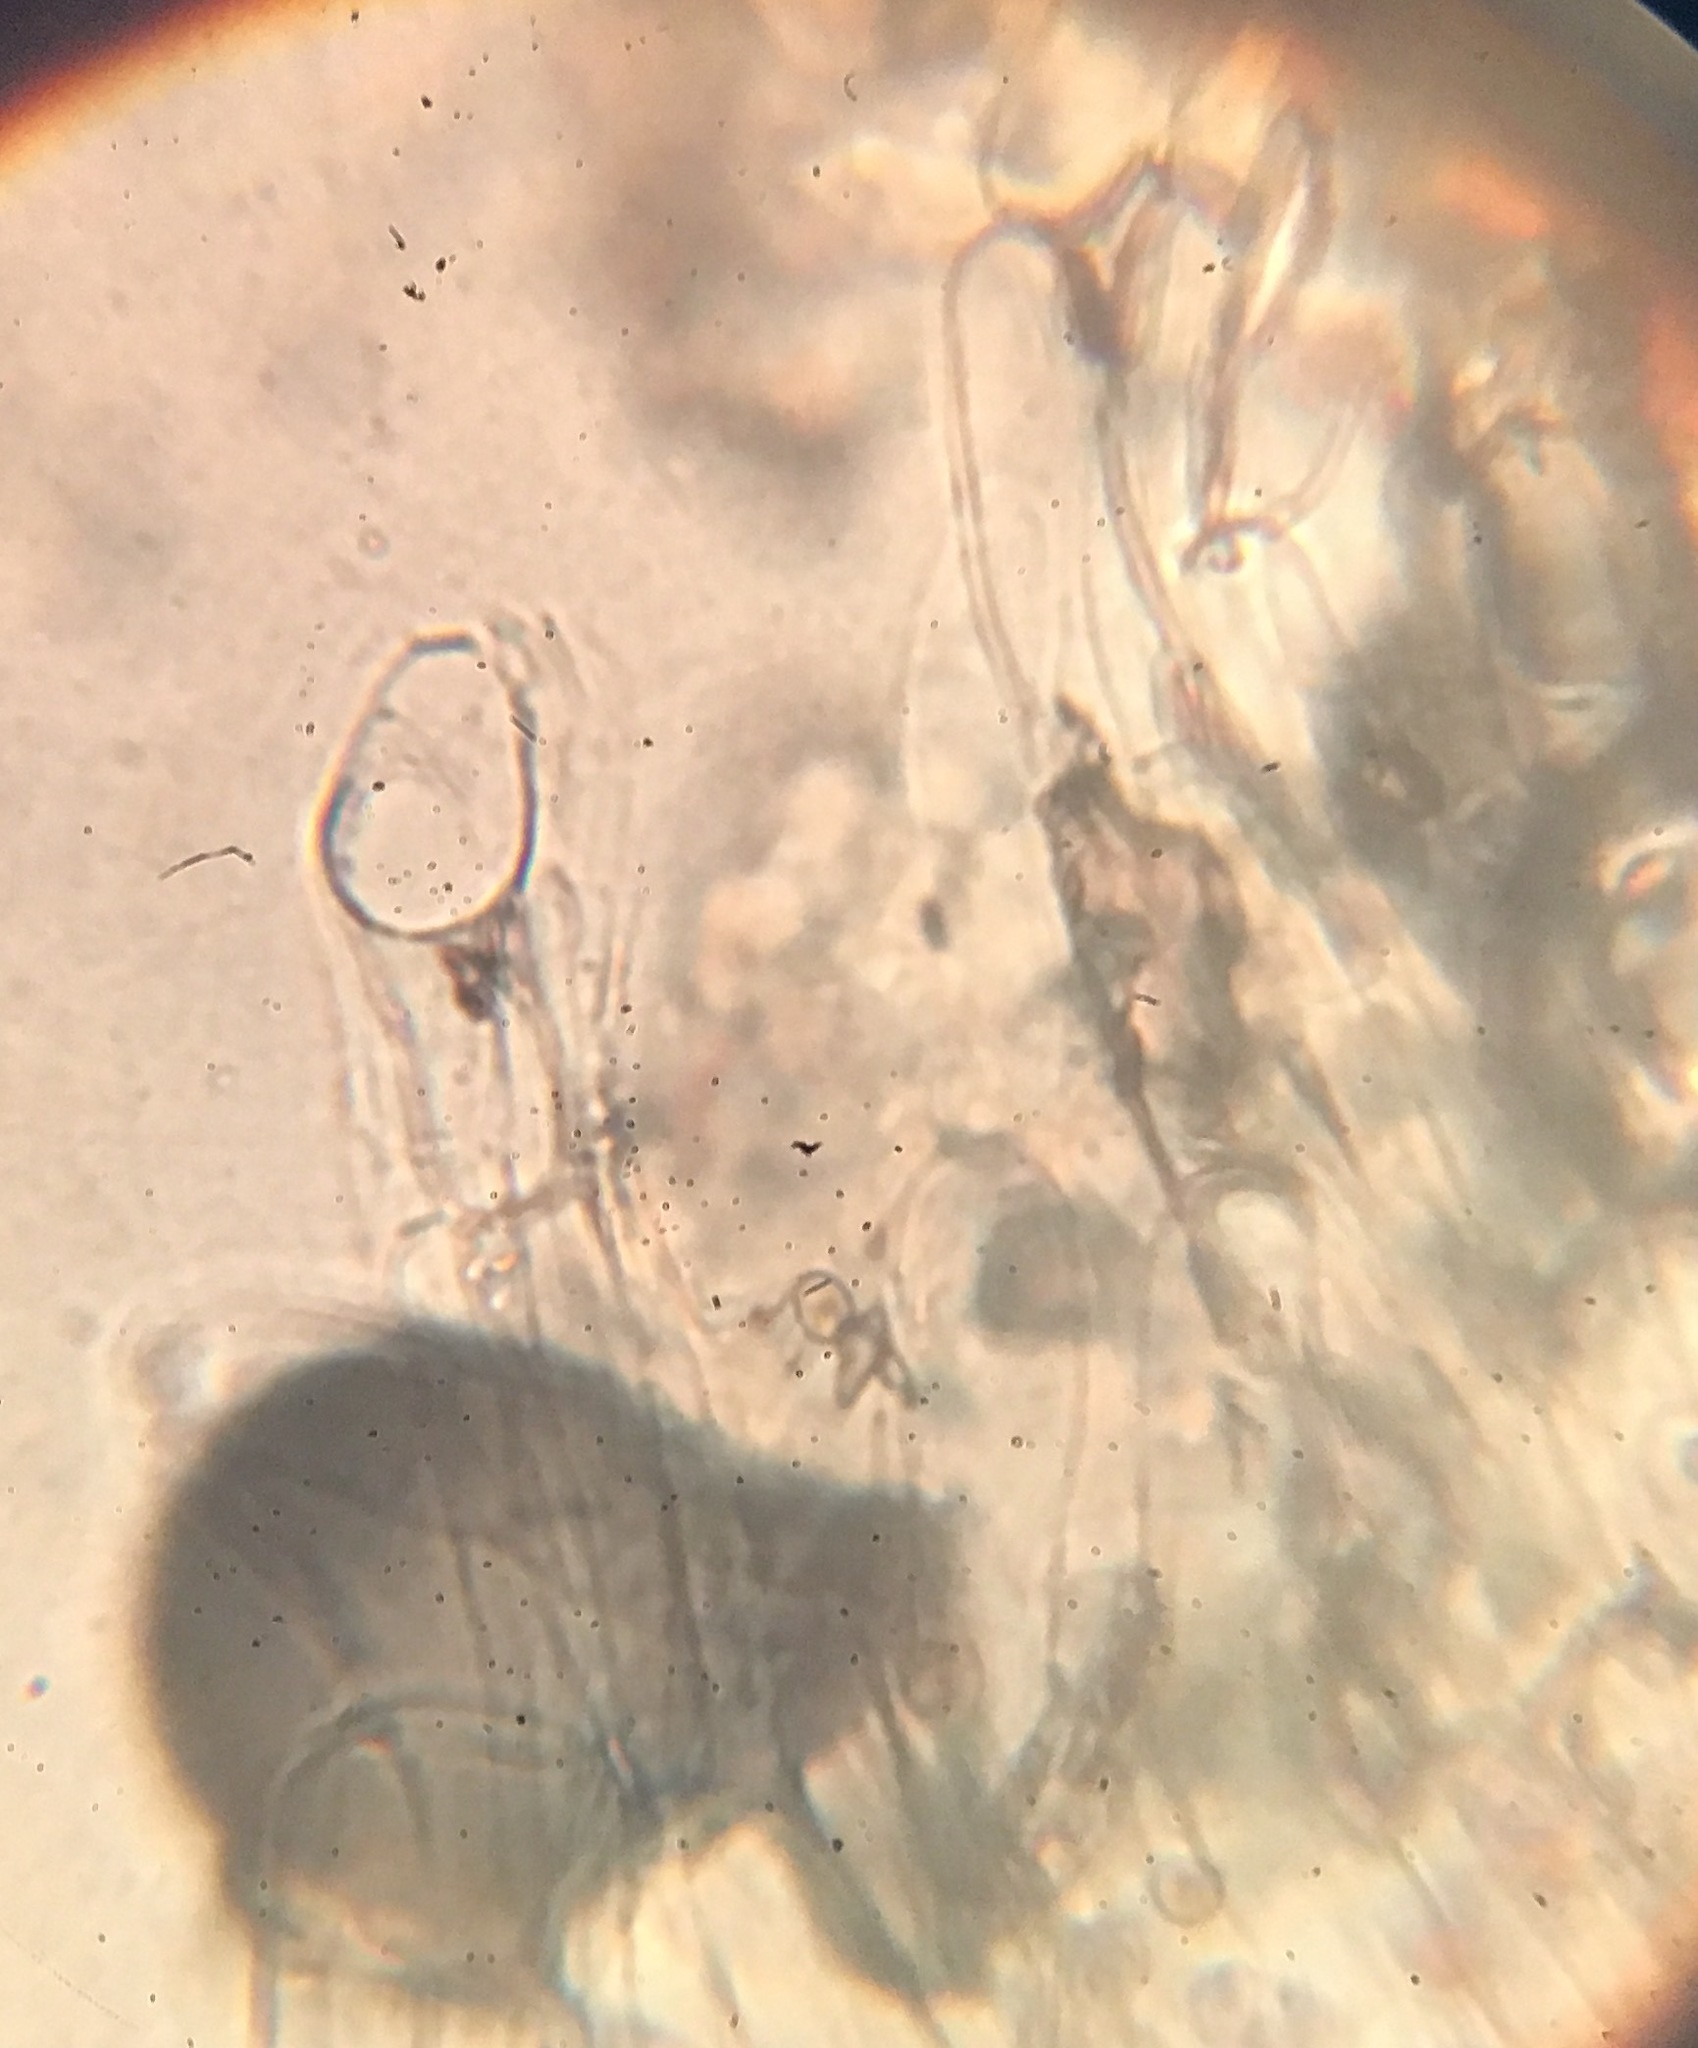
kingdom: Fungi
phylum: Basidiomycota
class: Agaricomycetes
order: Agaricales
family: Agaricaceae
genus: Agaricus
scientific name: Agaricus placomyces
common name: Inky mushroom
